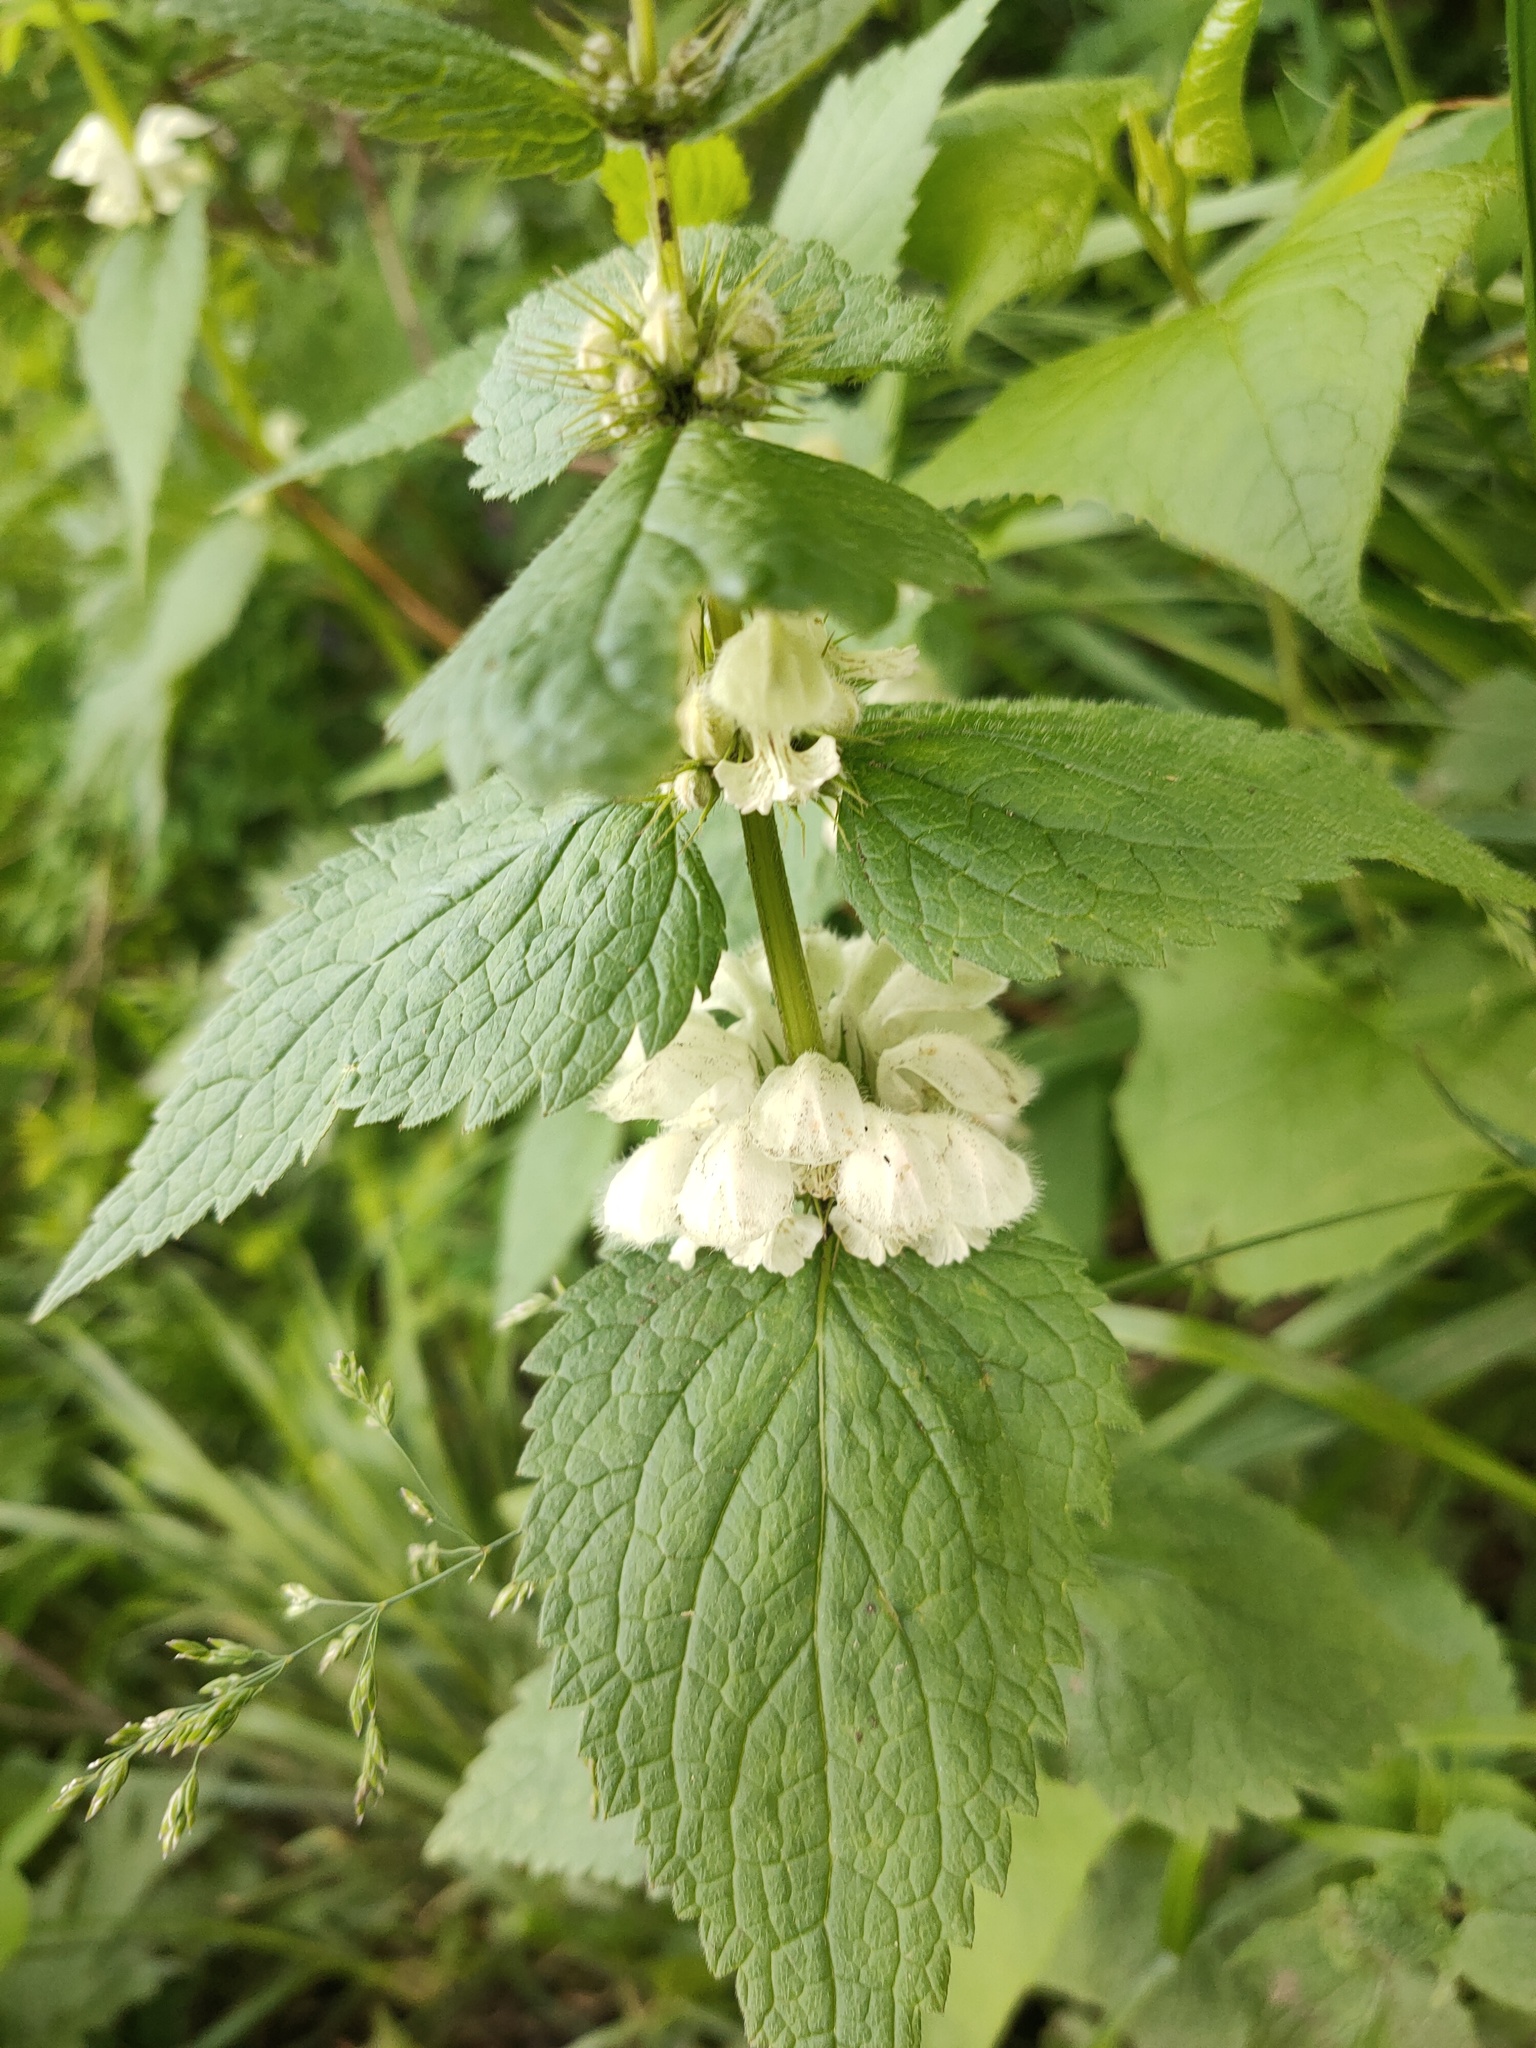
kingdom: Plantae
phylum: Tracheophyta
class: Magnoliopsida
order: Lamiales
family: Lamiaceae
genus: Lamium
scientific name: Lamium album
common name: White dead-nettle
